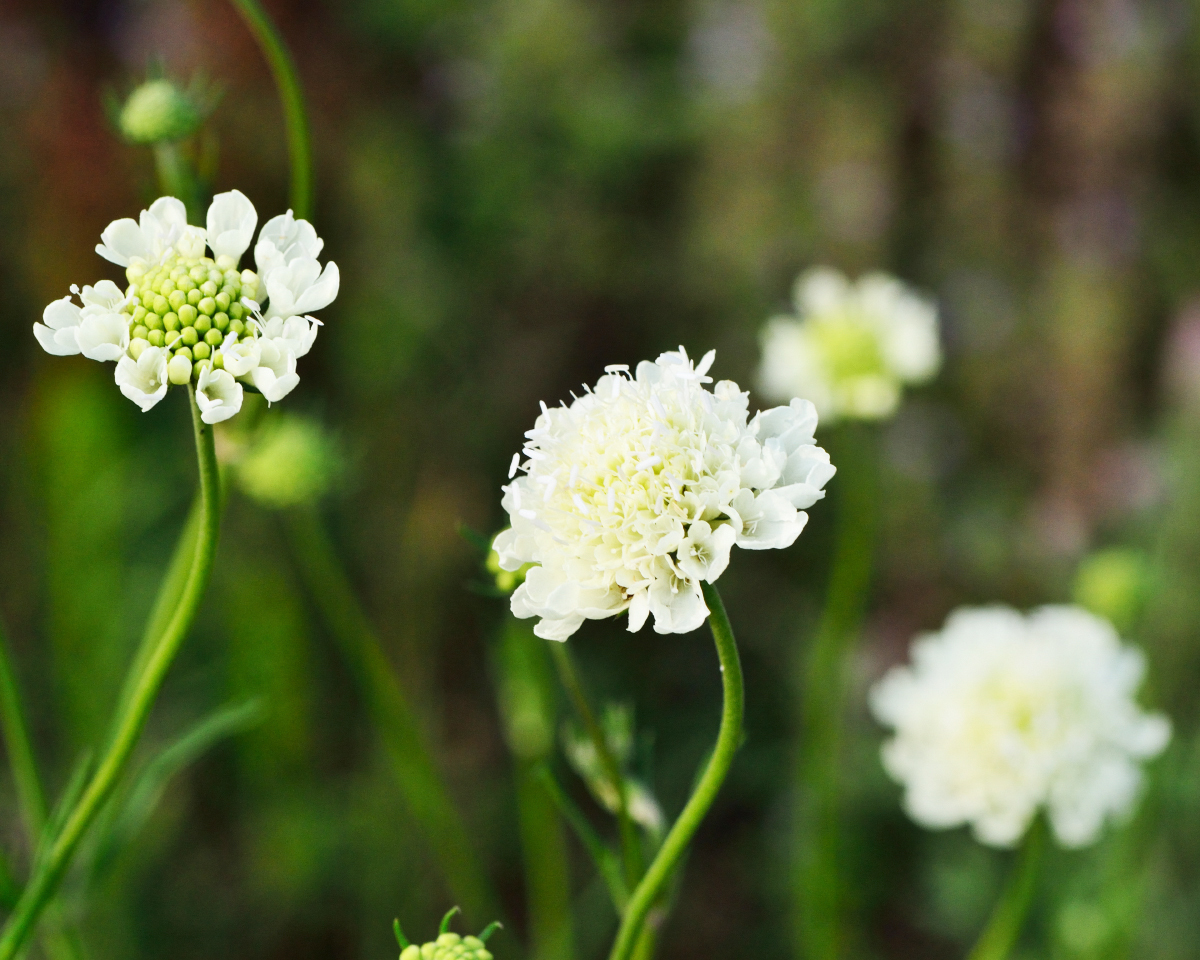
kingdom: Plantae
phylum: Tracheophyta
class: Magnoliopsida
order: Dipsacales
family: Caprifoliaceae
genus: Scabiosa
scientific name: Scabiosa ochroleuca
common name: Cream pincushions
